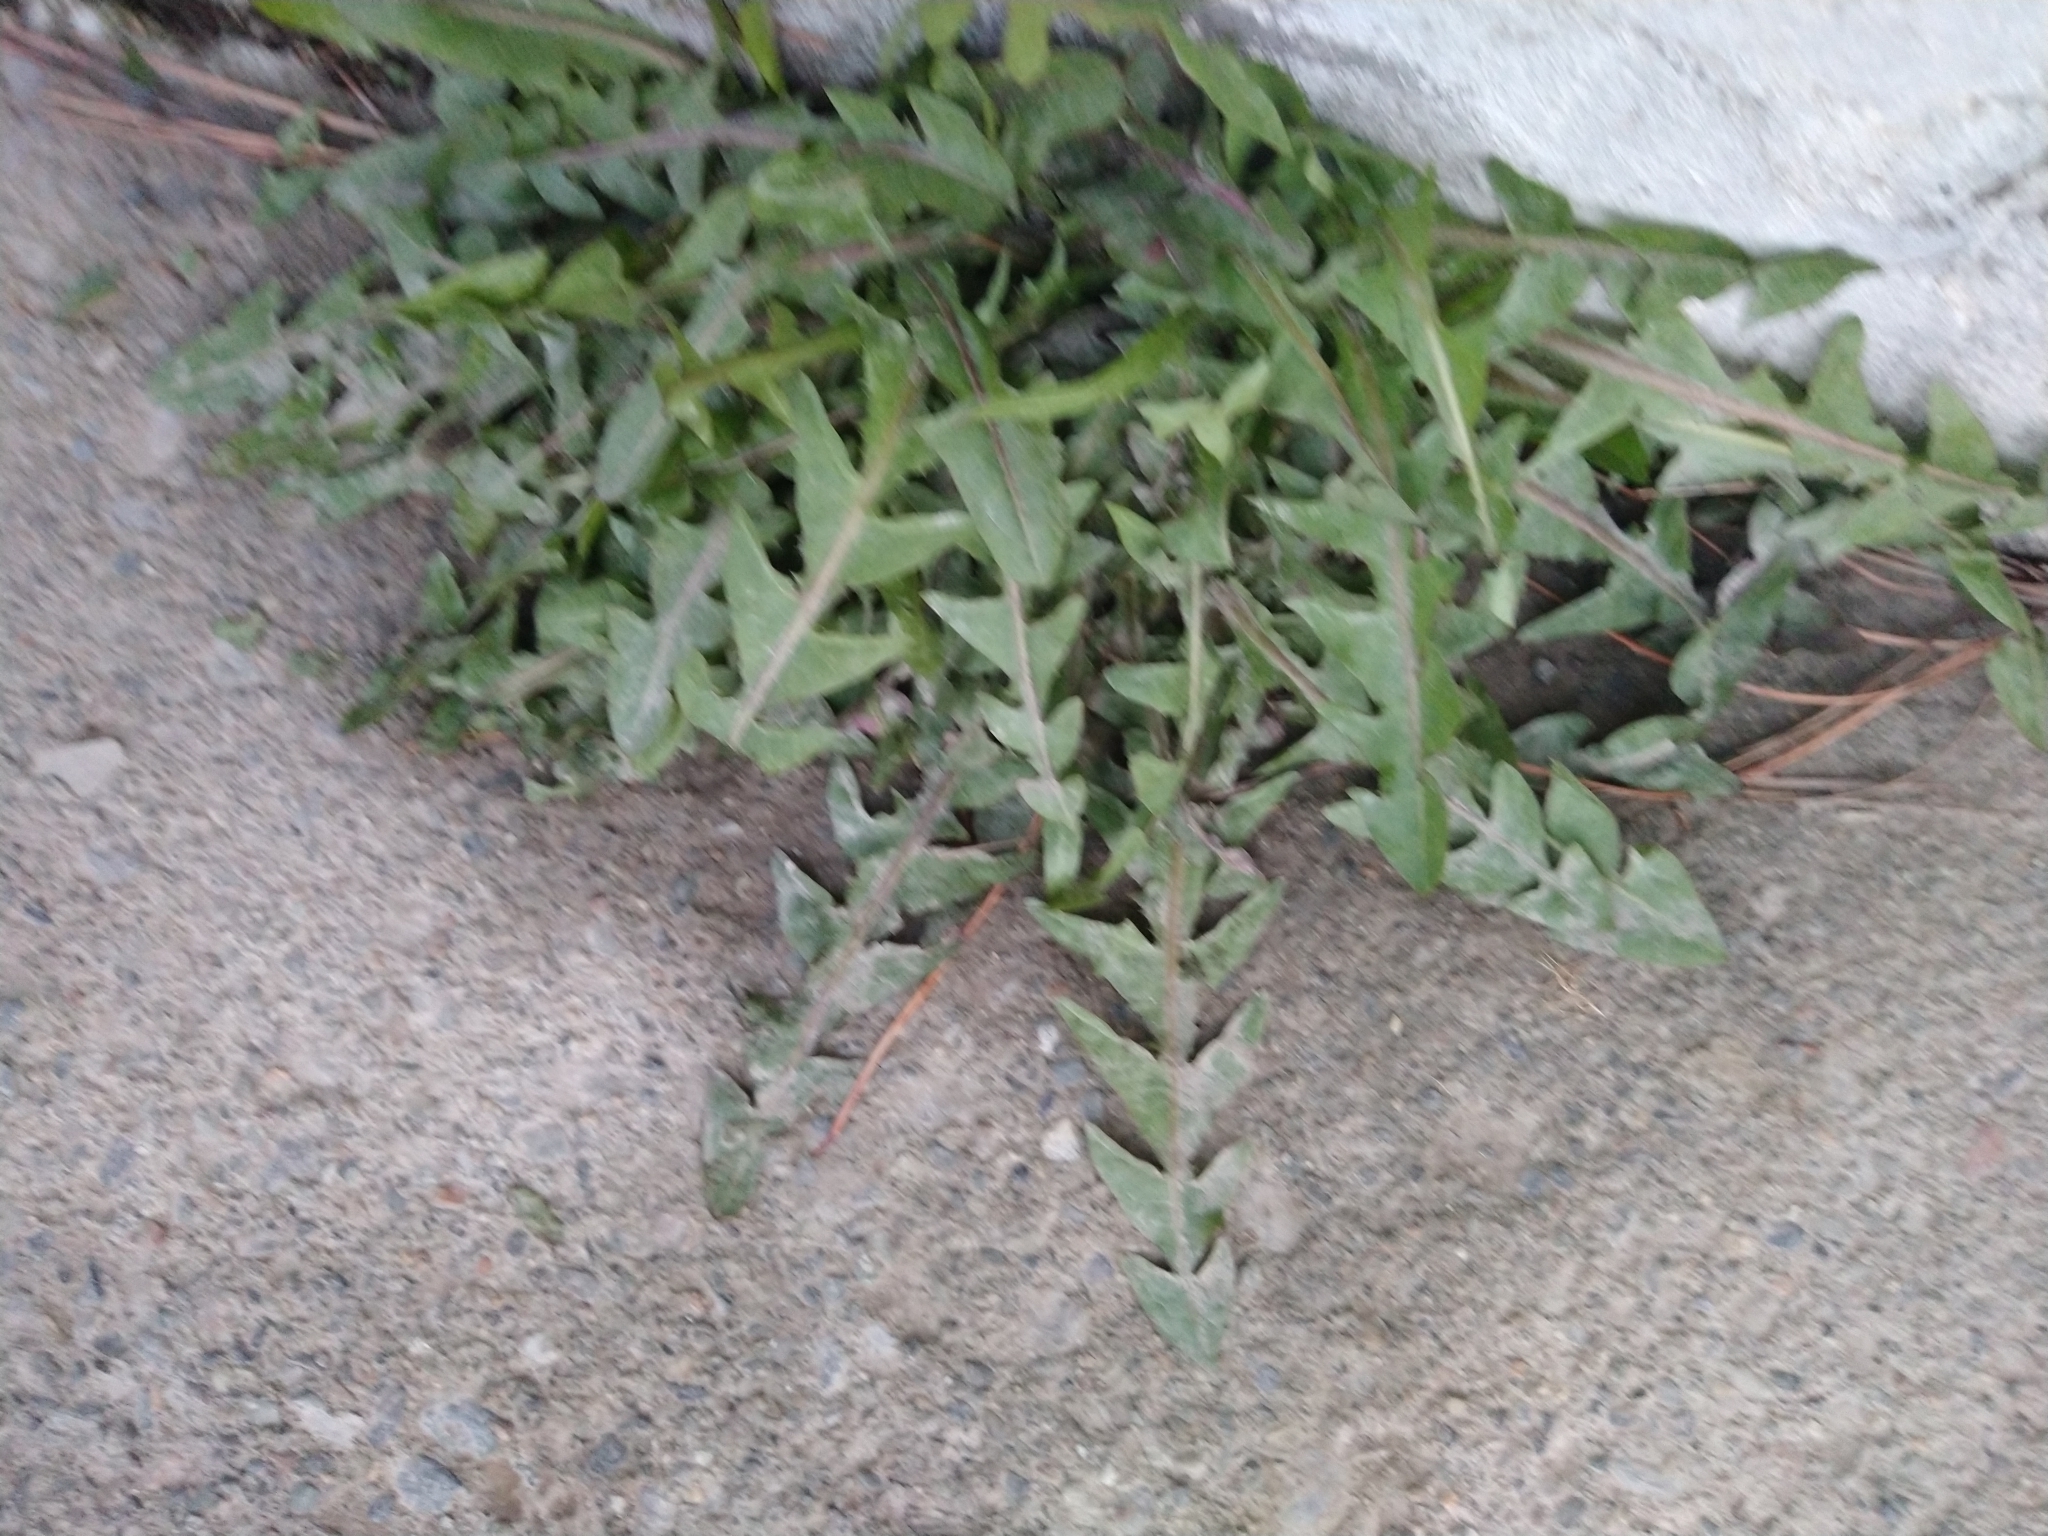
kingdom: Plantae
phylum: Tracheophyta
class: Magnoliopsida
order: Asterales
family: Asteraceae
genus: Taraxacum
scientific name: Taraxacum officinale
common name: Common dandelion
